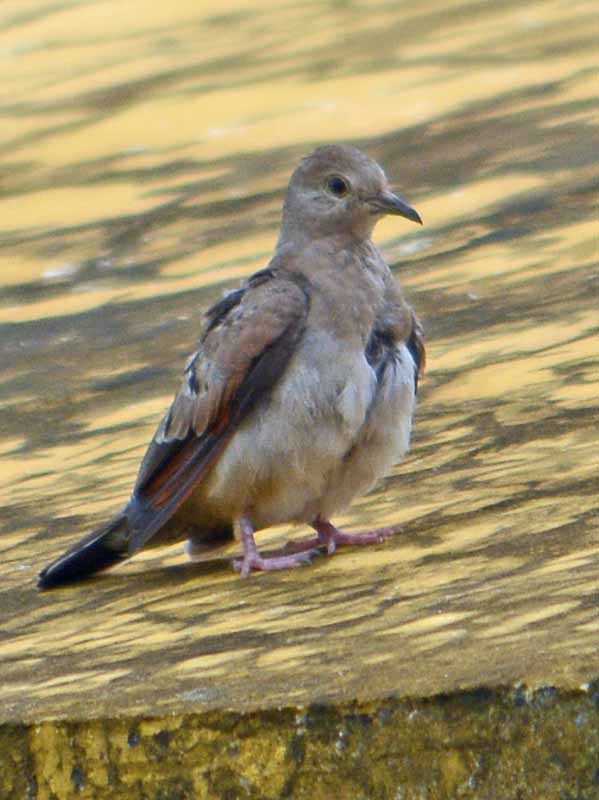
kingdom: Animalia
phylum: Chordata
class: Aves
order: Columbiformes
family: Columbidae
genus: Columbina
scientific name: Columbina talpacoti
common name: Ruddy ground dove
